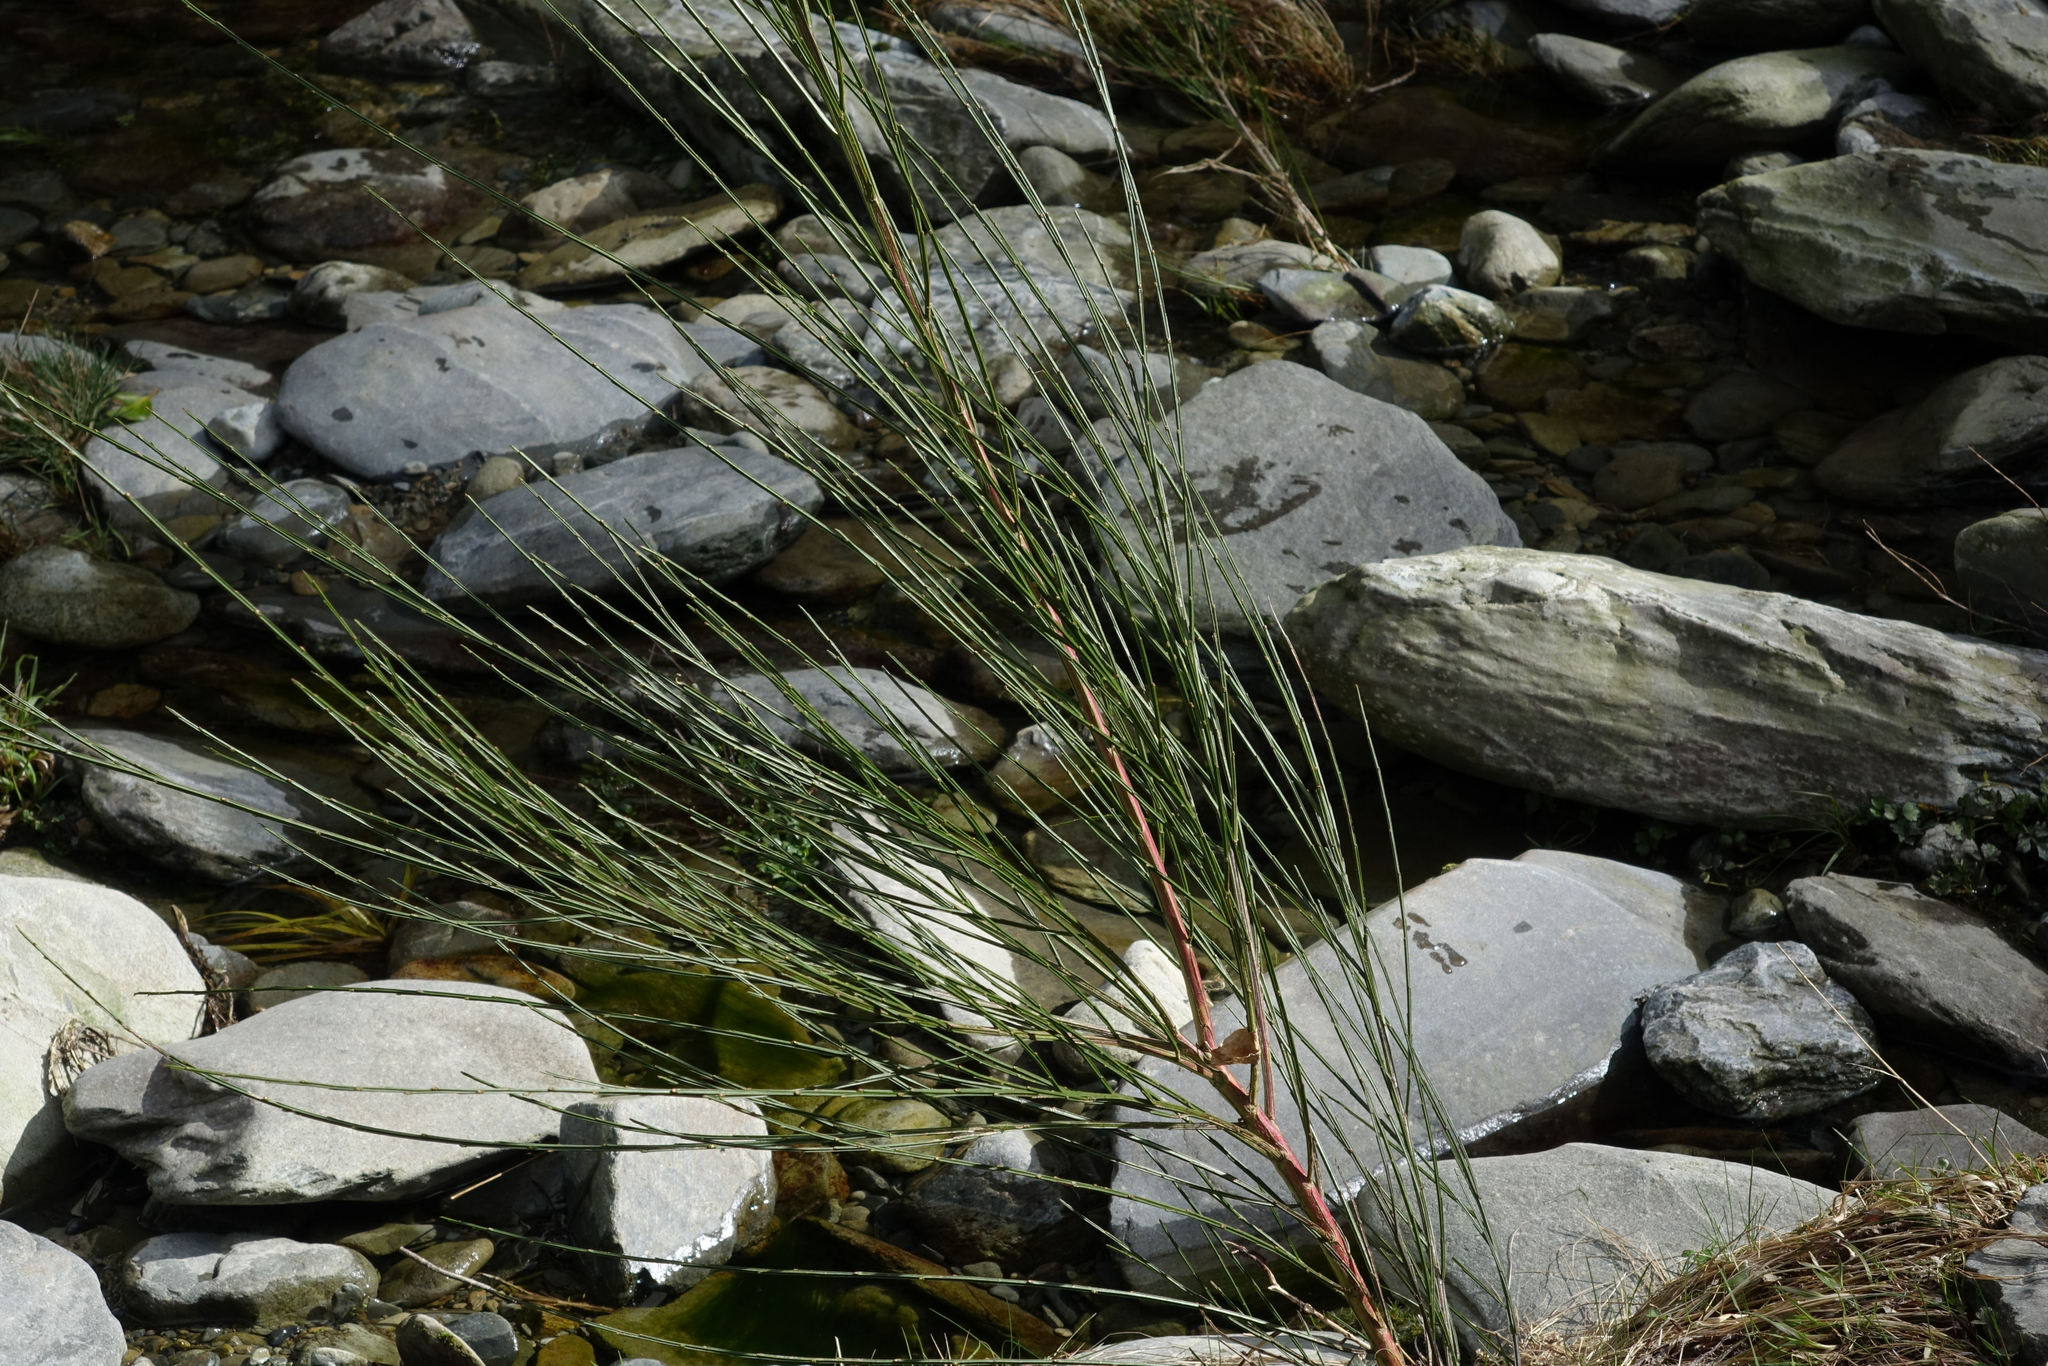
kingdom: Plantae
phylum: Tracheophyta
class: Magnoliopsida
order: Fabales
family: Fabaceae
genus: Cytisus
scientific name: Cytisus scoparius
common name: Scotch broom
